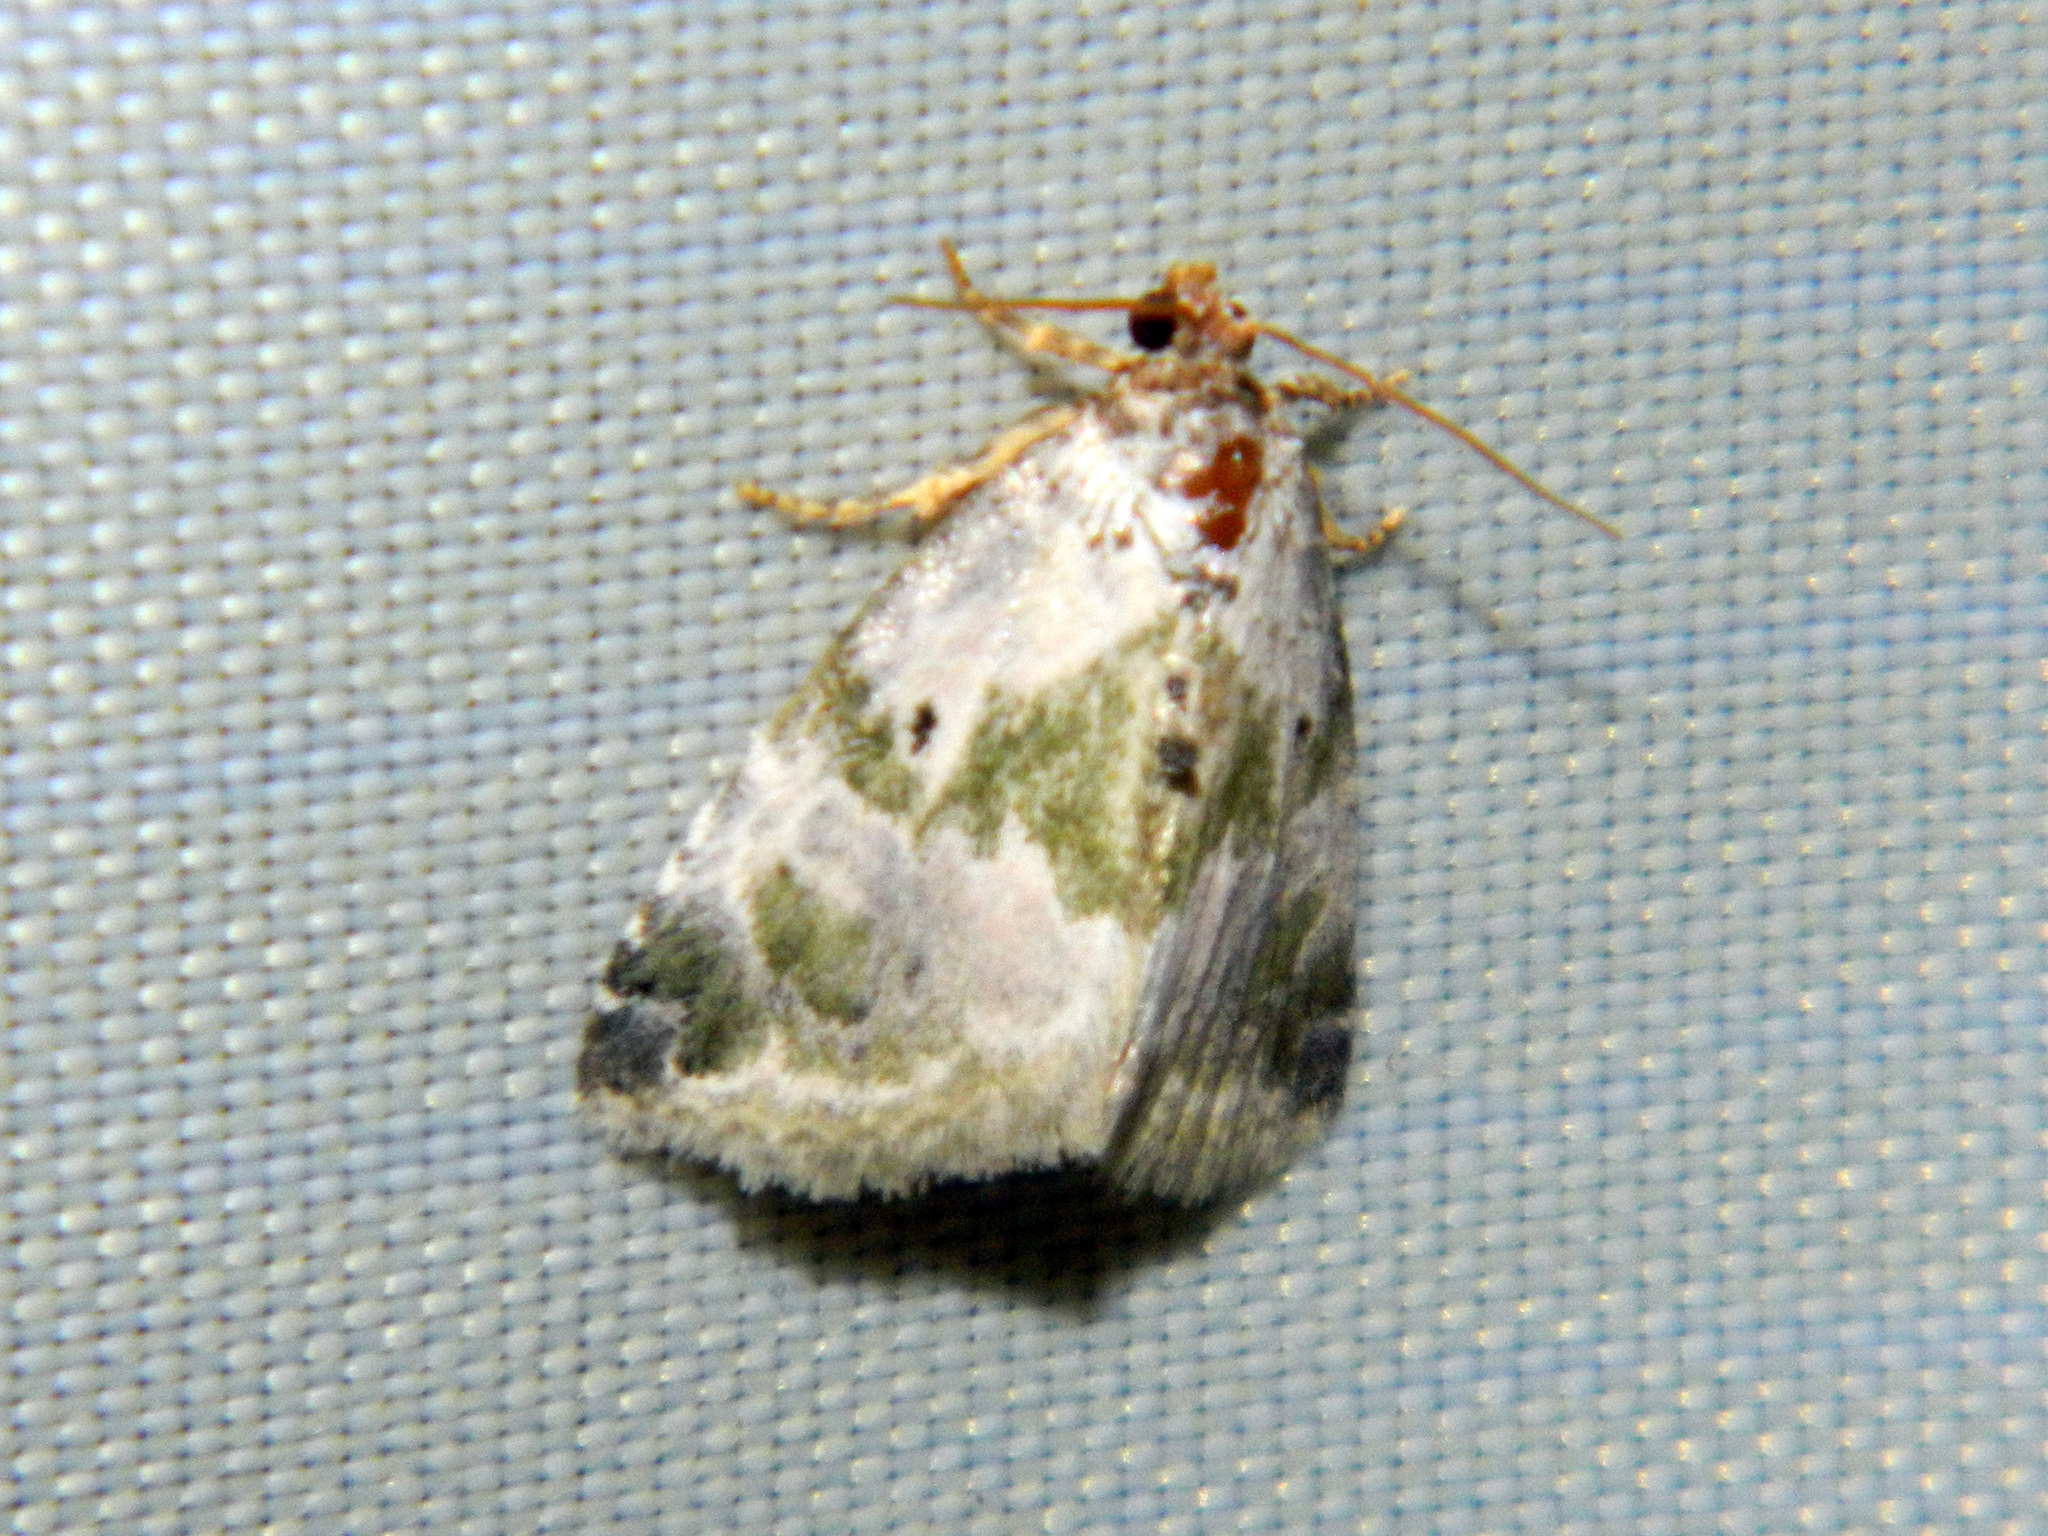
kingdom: Animalia
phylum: Arthropoda
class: Insecta
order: Lepidoptera
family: Noctuidae
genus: Maliattha
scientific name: Maliattha synochitis
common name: Black-dotted glyph
